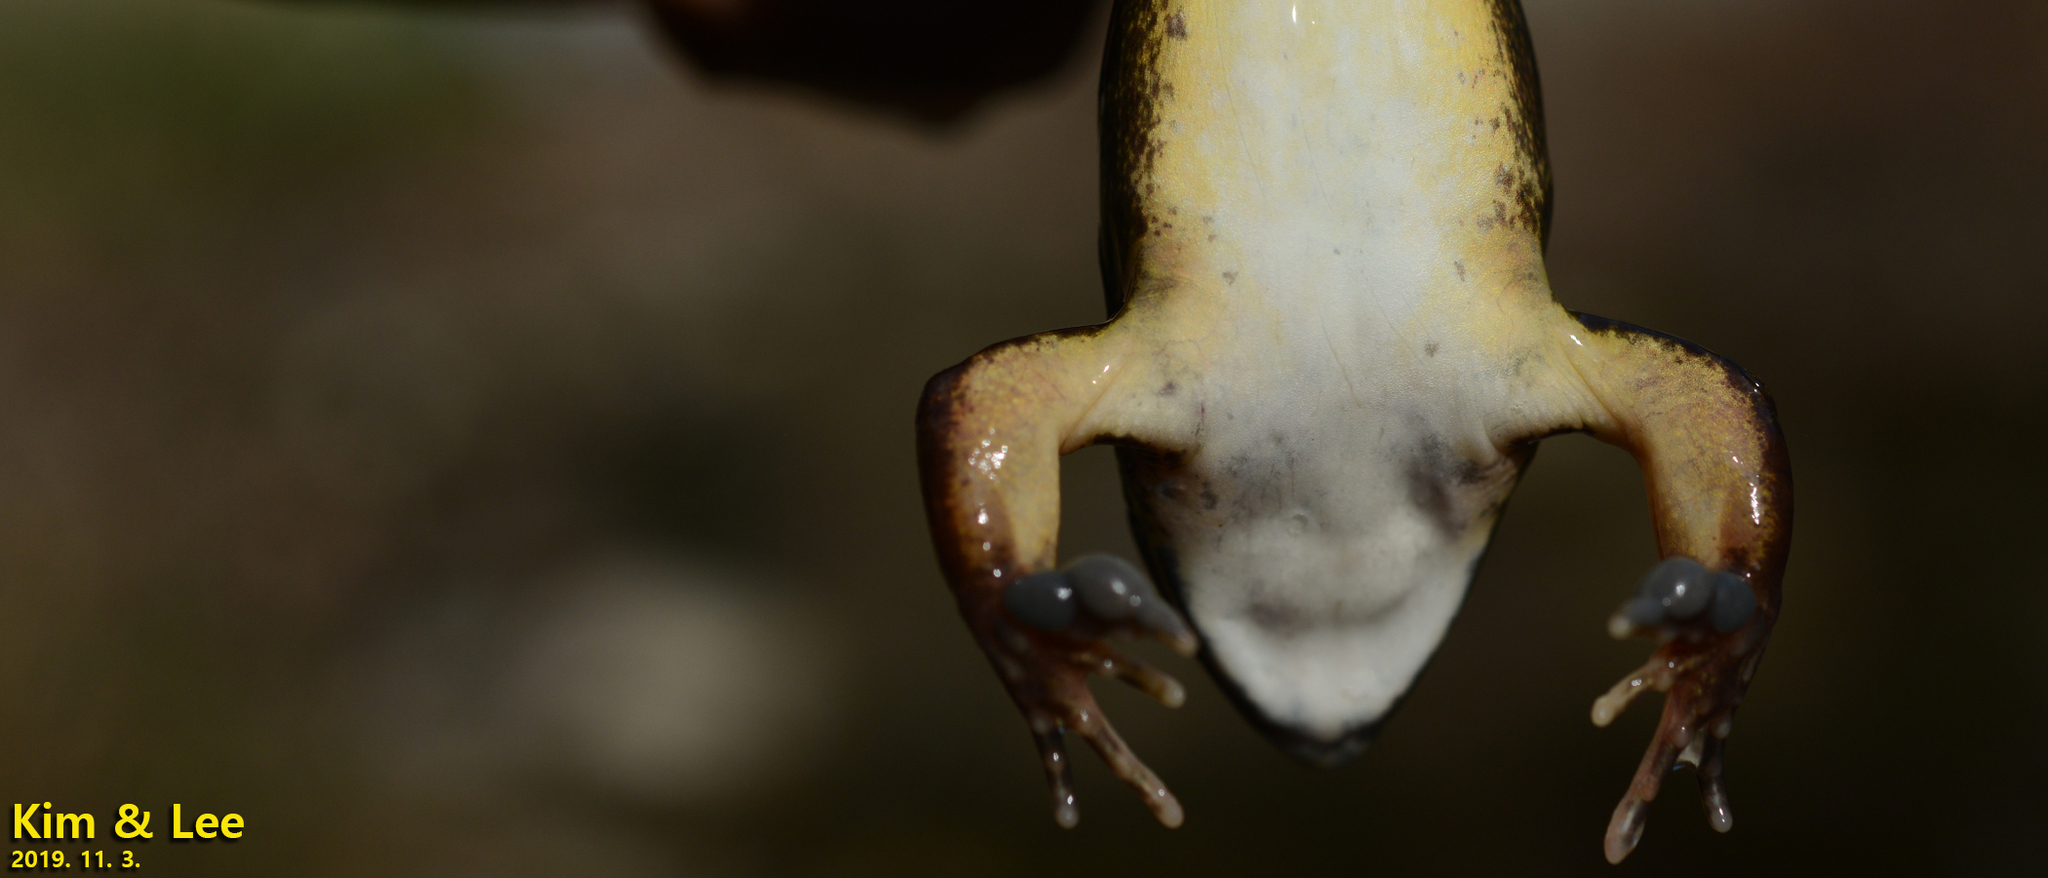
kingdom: Animalia
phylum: Chordata
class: Amphibia
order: Anura
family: Ranidae
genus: Rana
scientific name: Rana uenoi
